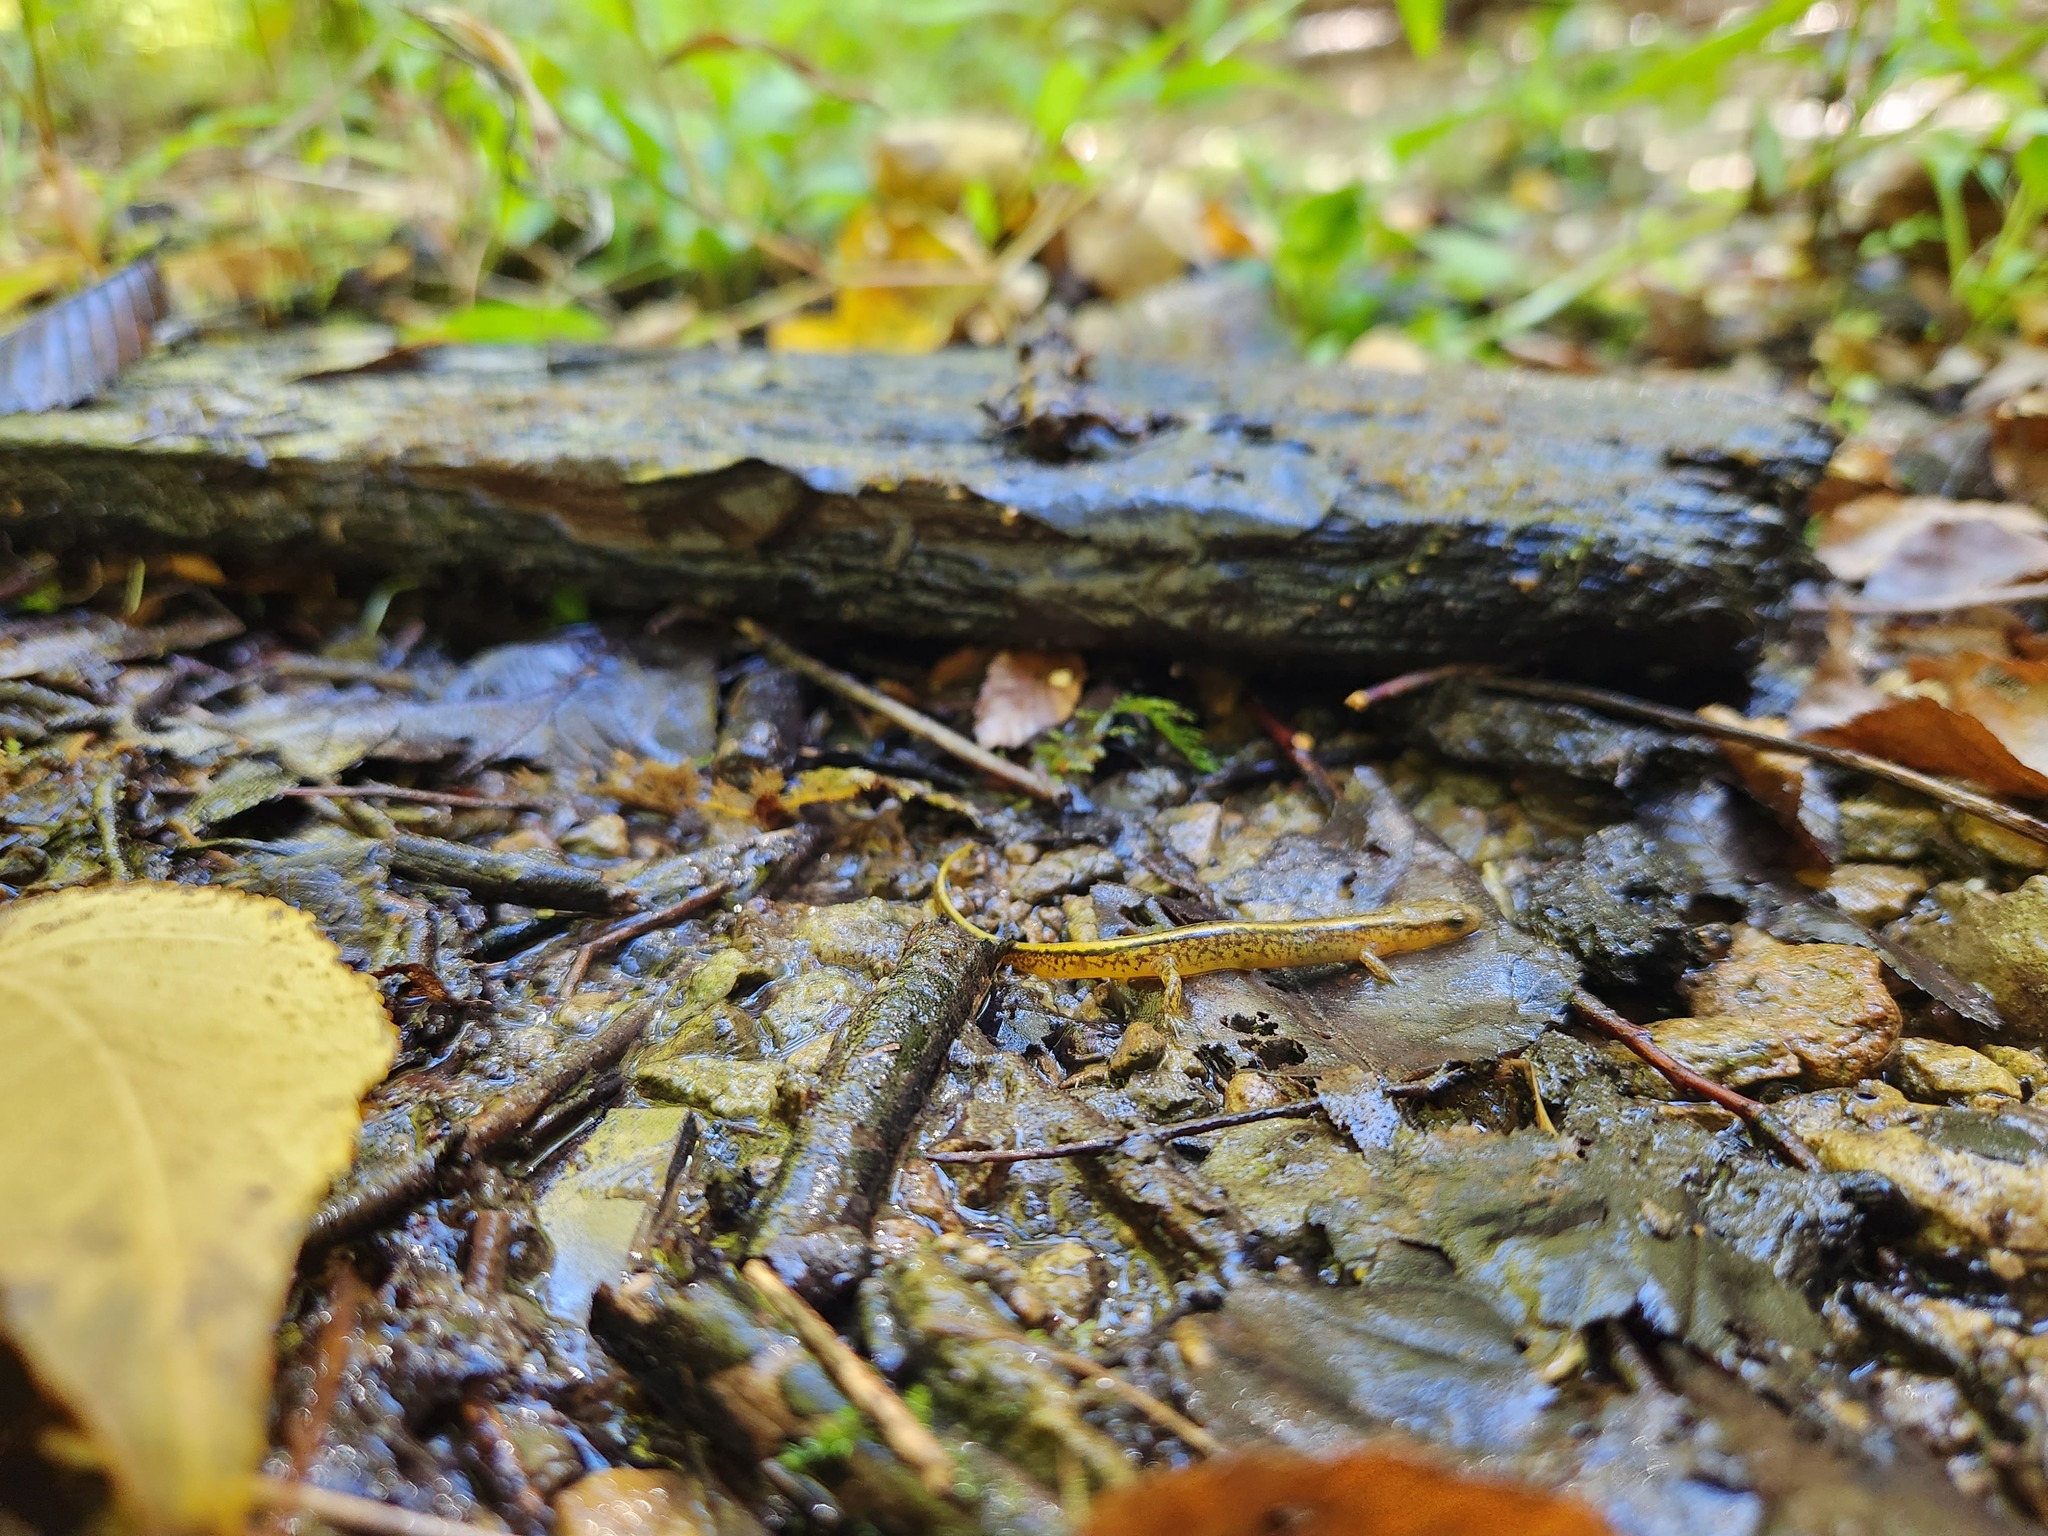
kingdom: Animalia
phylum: Chordata
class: Amphibia
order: Caudata
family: Plethodontidae
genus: Eurycea
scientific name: Eurycea cirrigera
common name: Southern two-lined salamander
